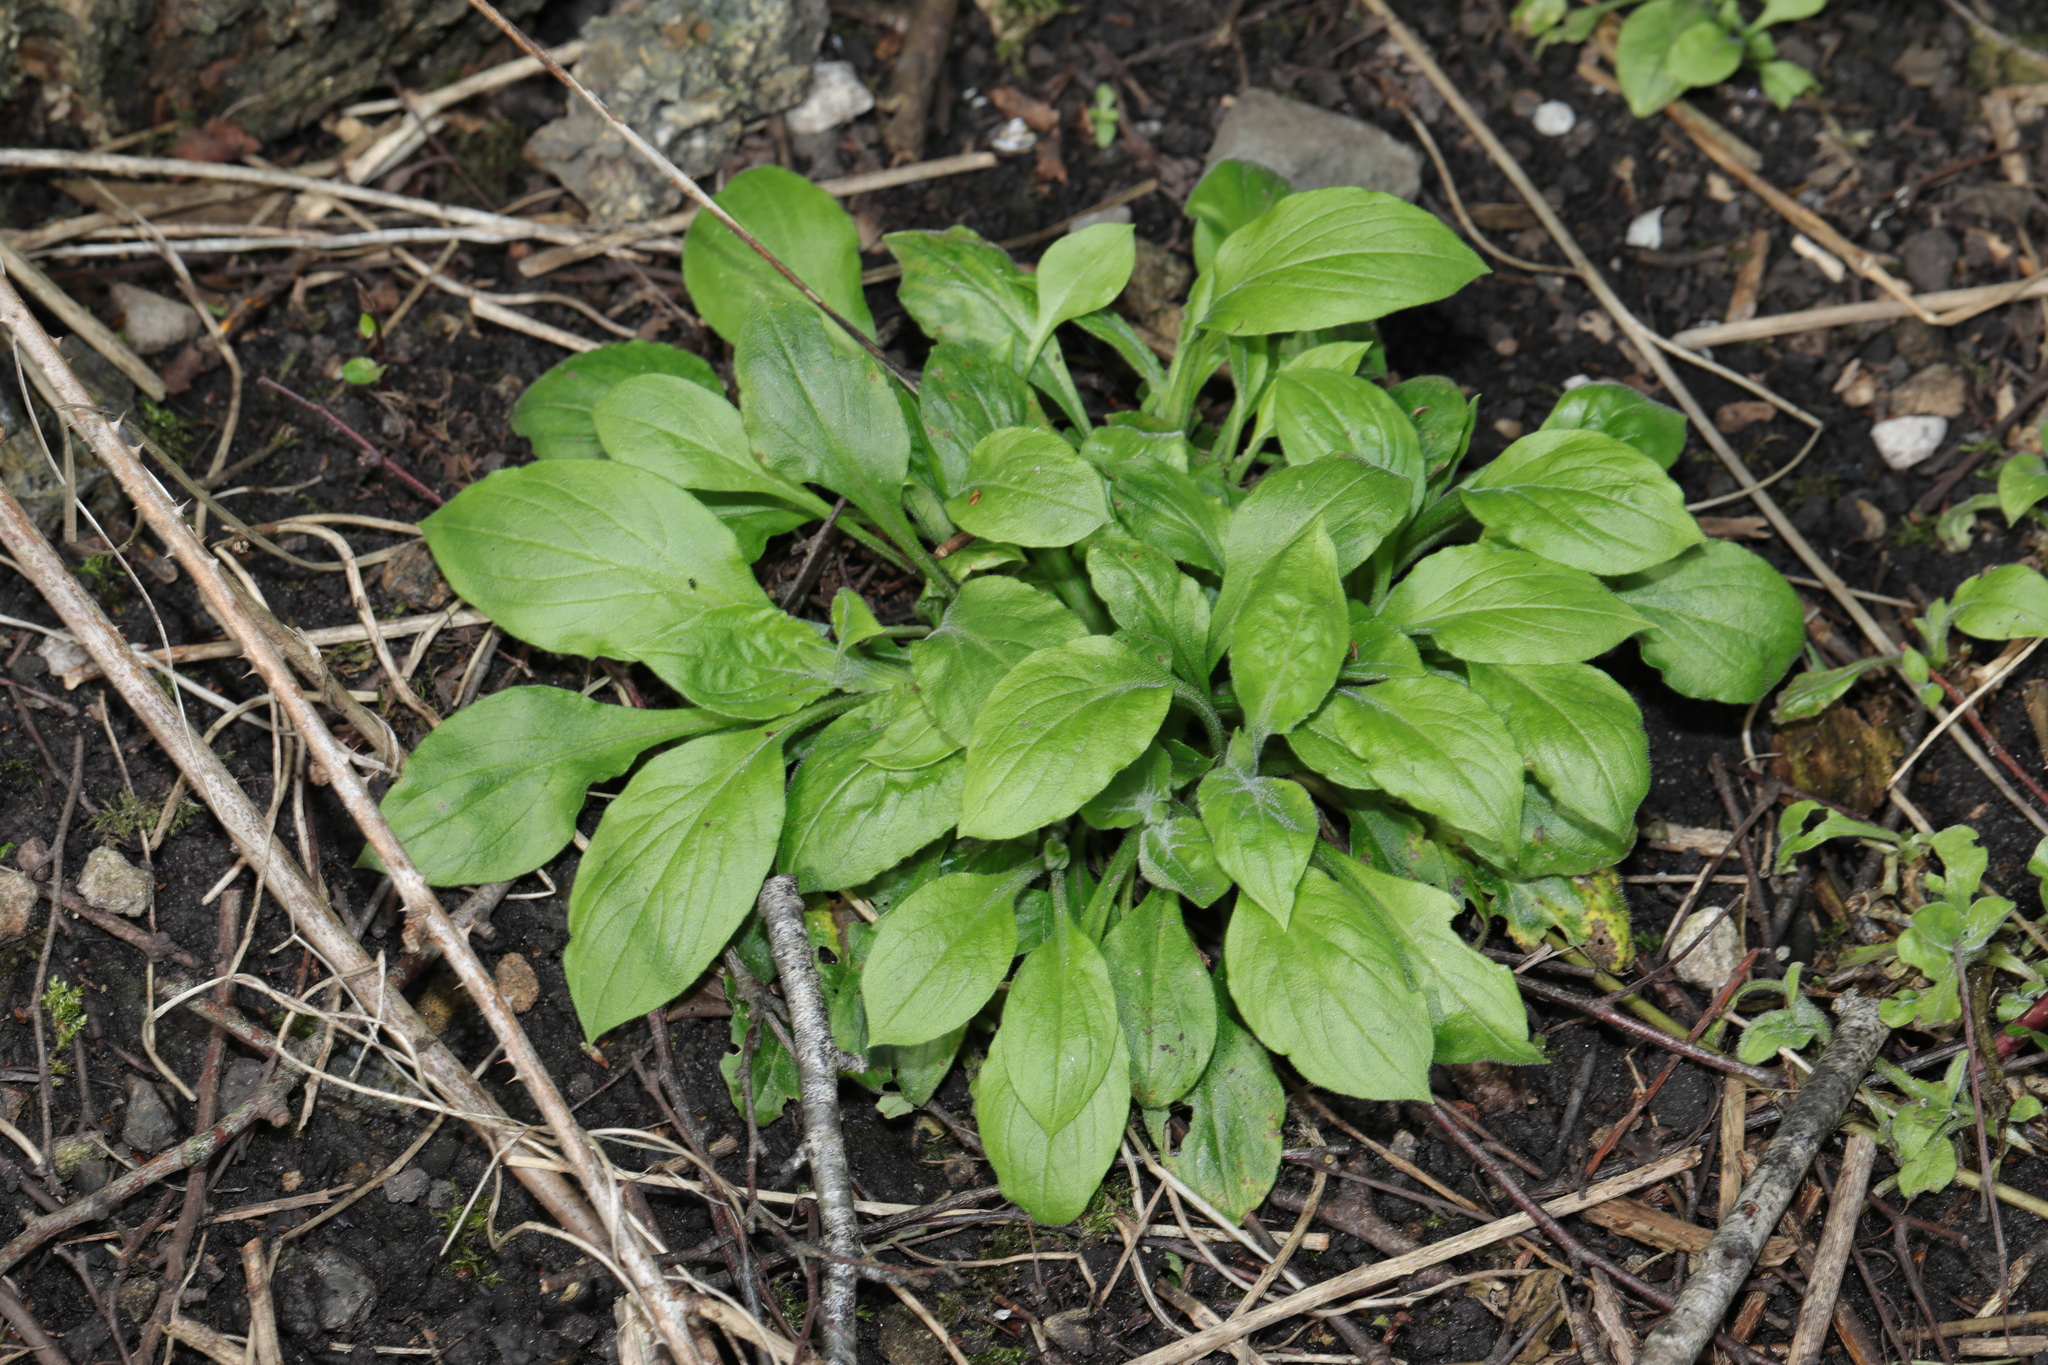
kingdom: Plantae
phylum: Tracheophyta
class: Magnoliopsida
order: Caryophyllales
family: Caryophyllaceae
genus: Silene
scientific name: Silene dioica
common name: Red campion
